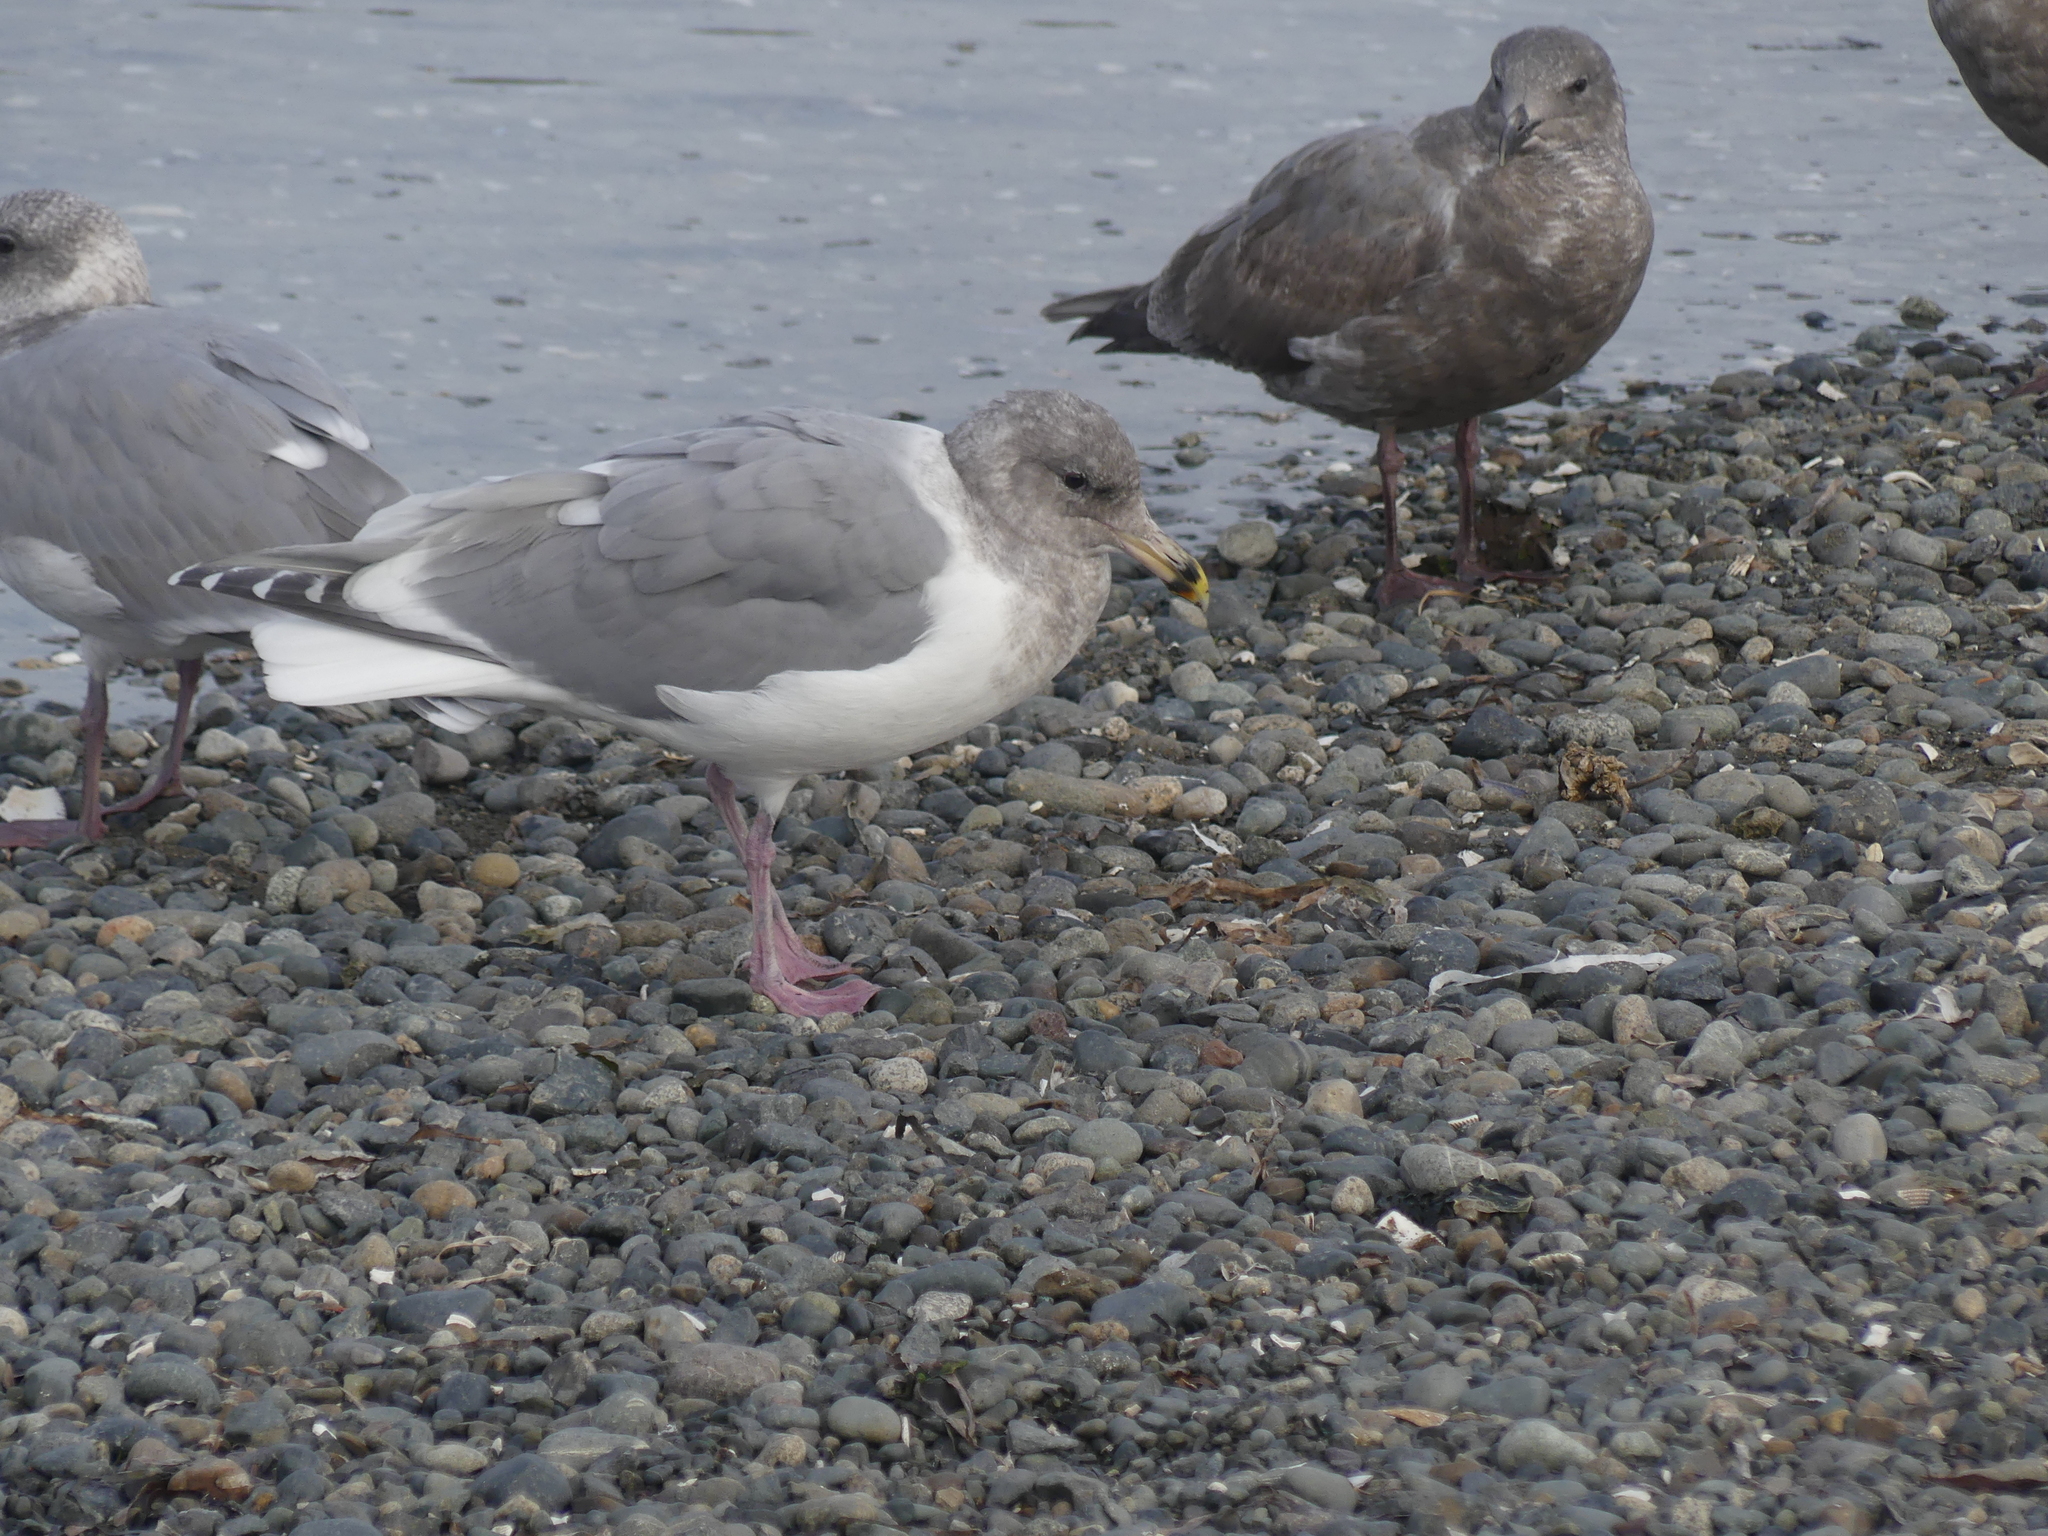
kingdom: Animalia
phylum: Chordata
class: Aves
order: Charadriiformes
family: Laridae
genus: Larus
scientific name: Larus
